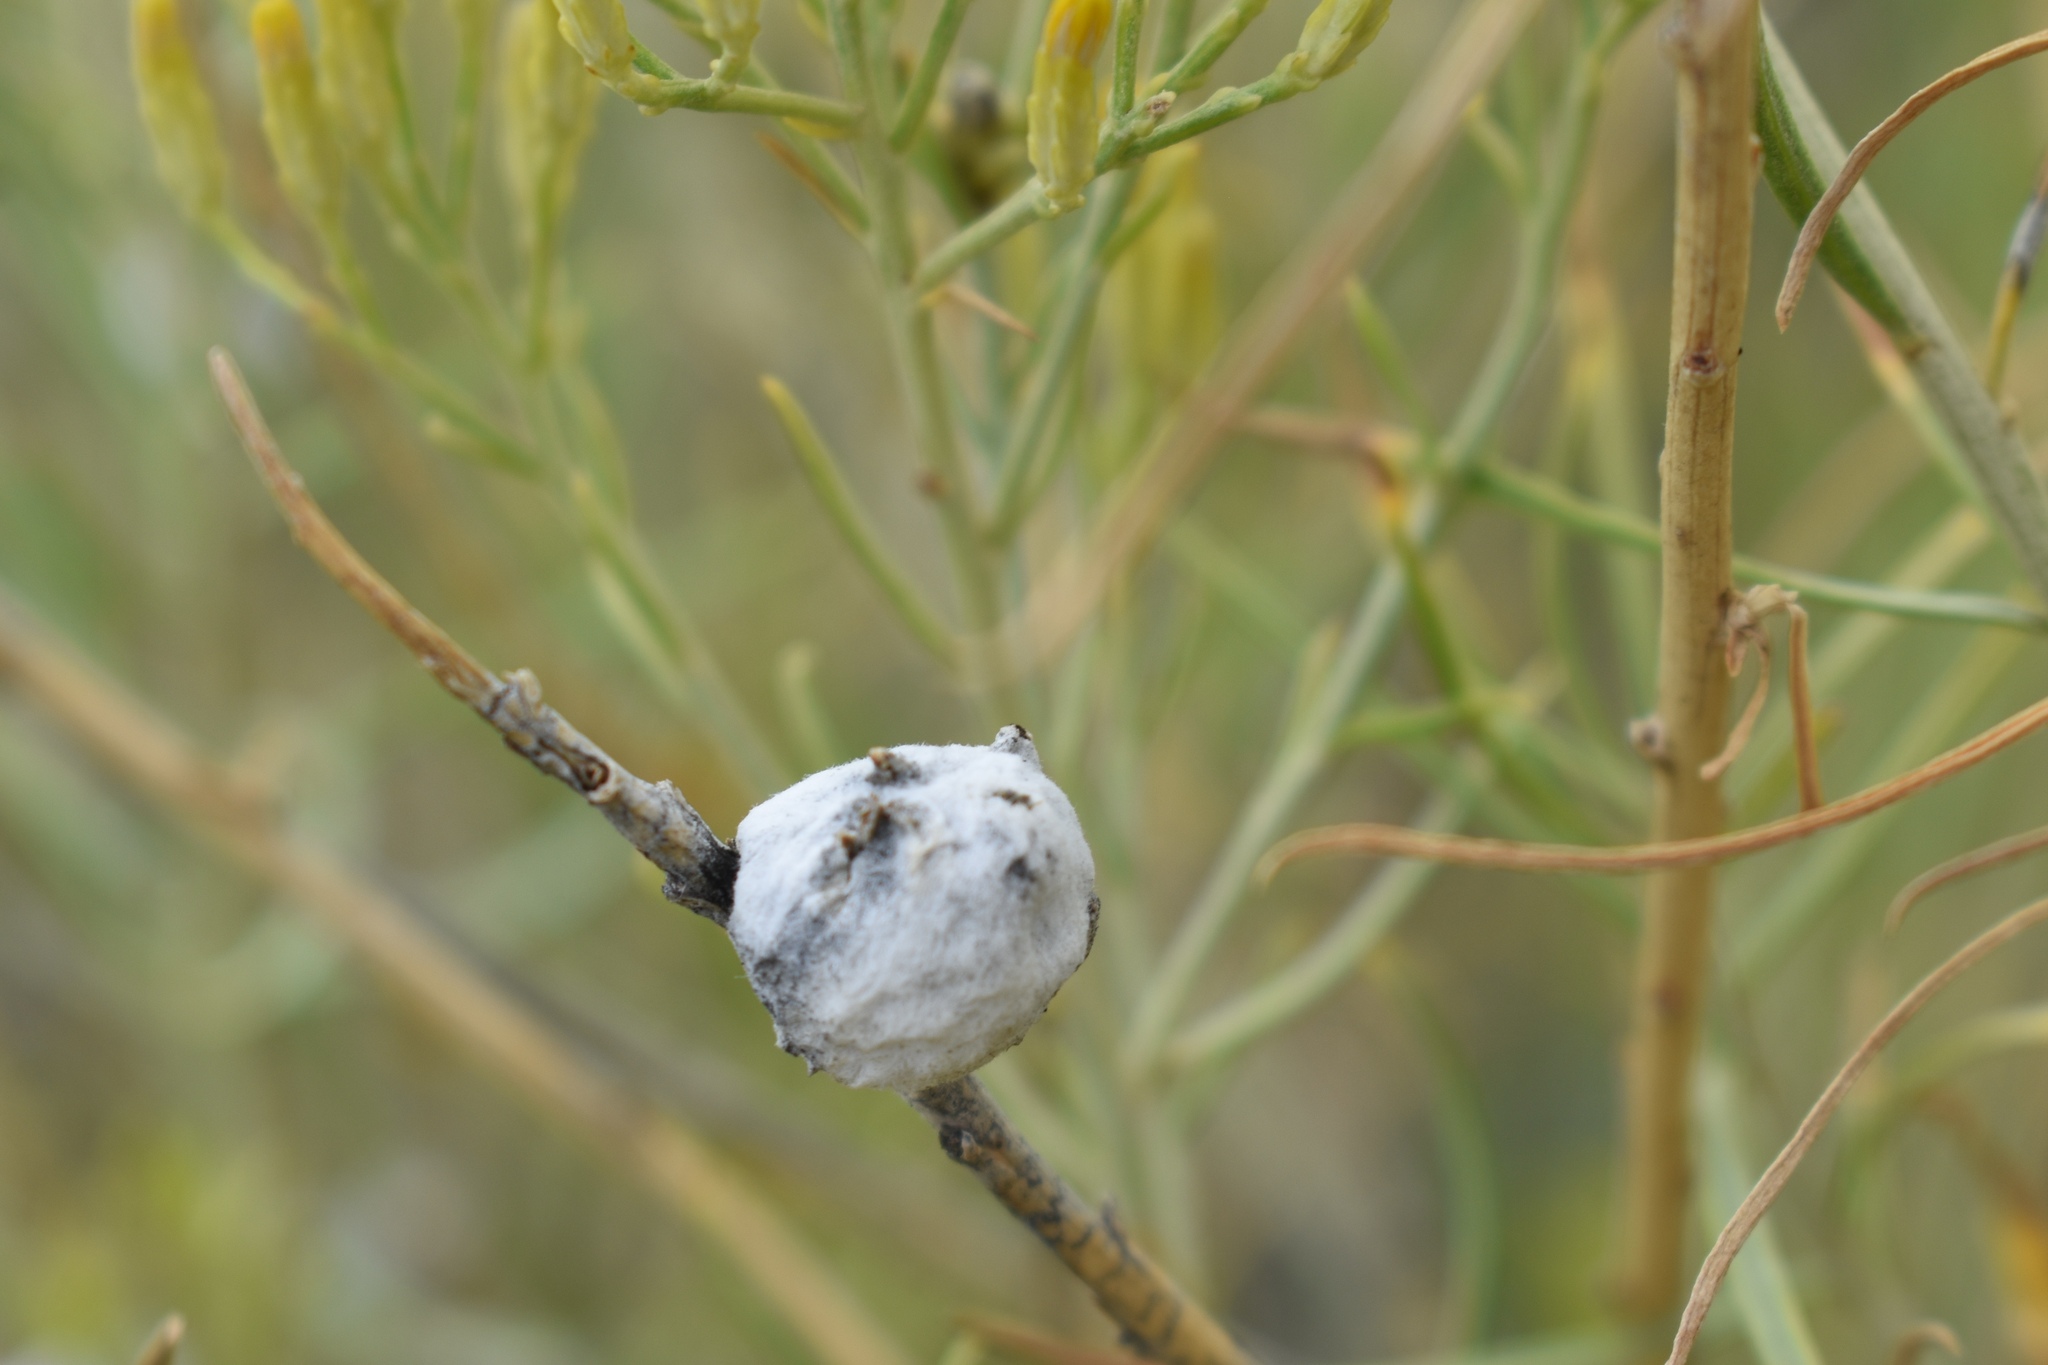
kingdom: Animalia
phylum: Arthropoda
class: Insecta
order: Diptera
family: Tephritidae
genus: Aciurina
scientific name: Aciurina bigeloviae
